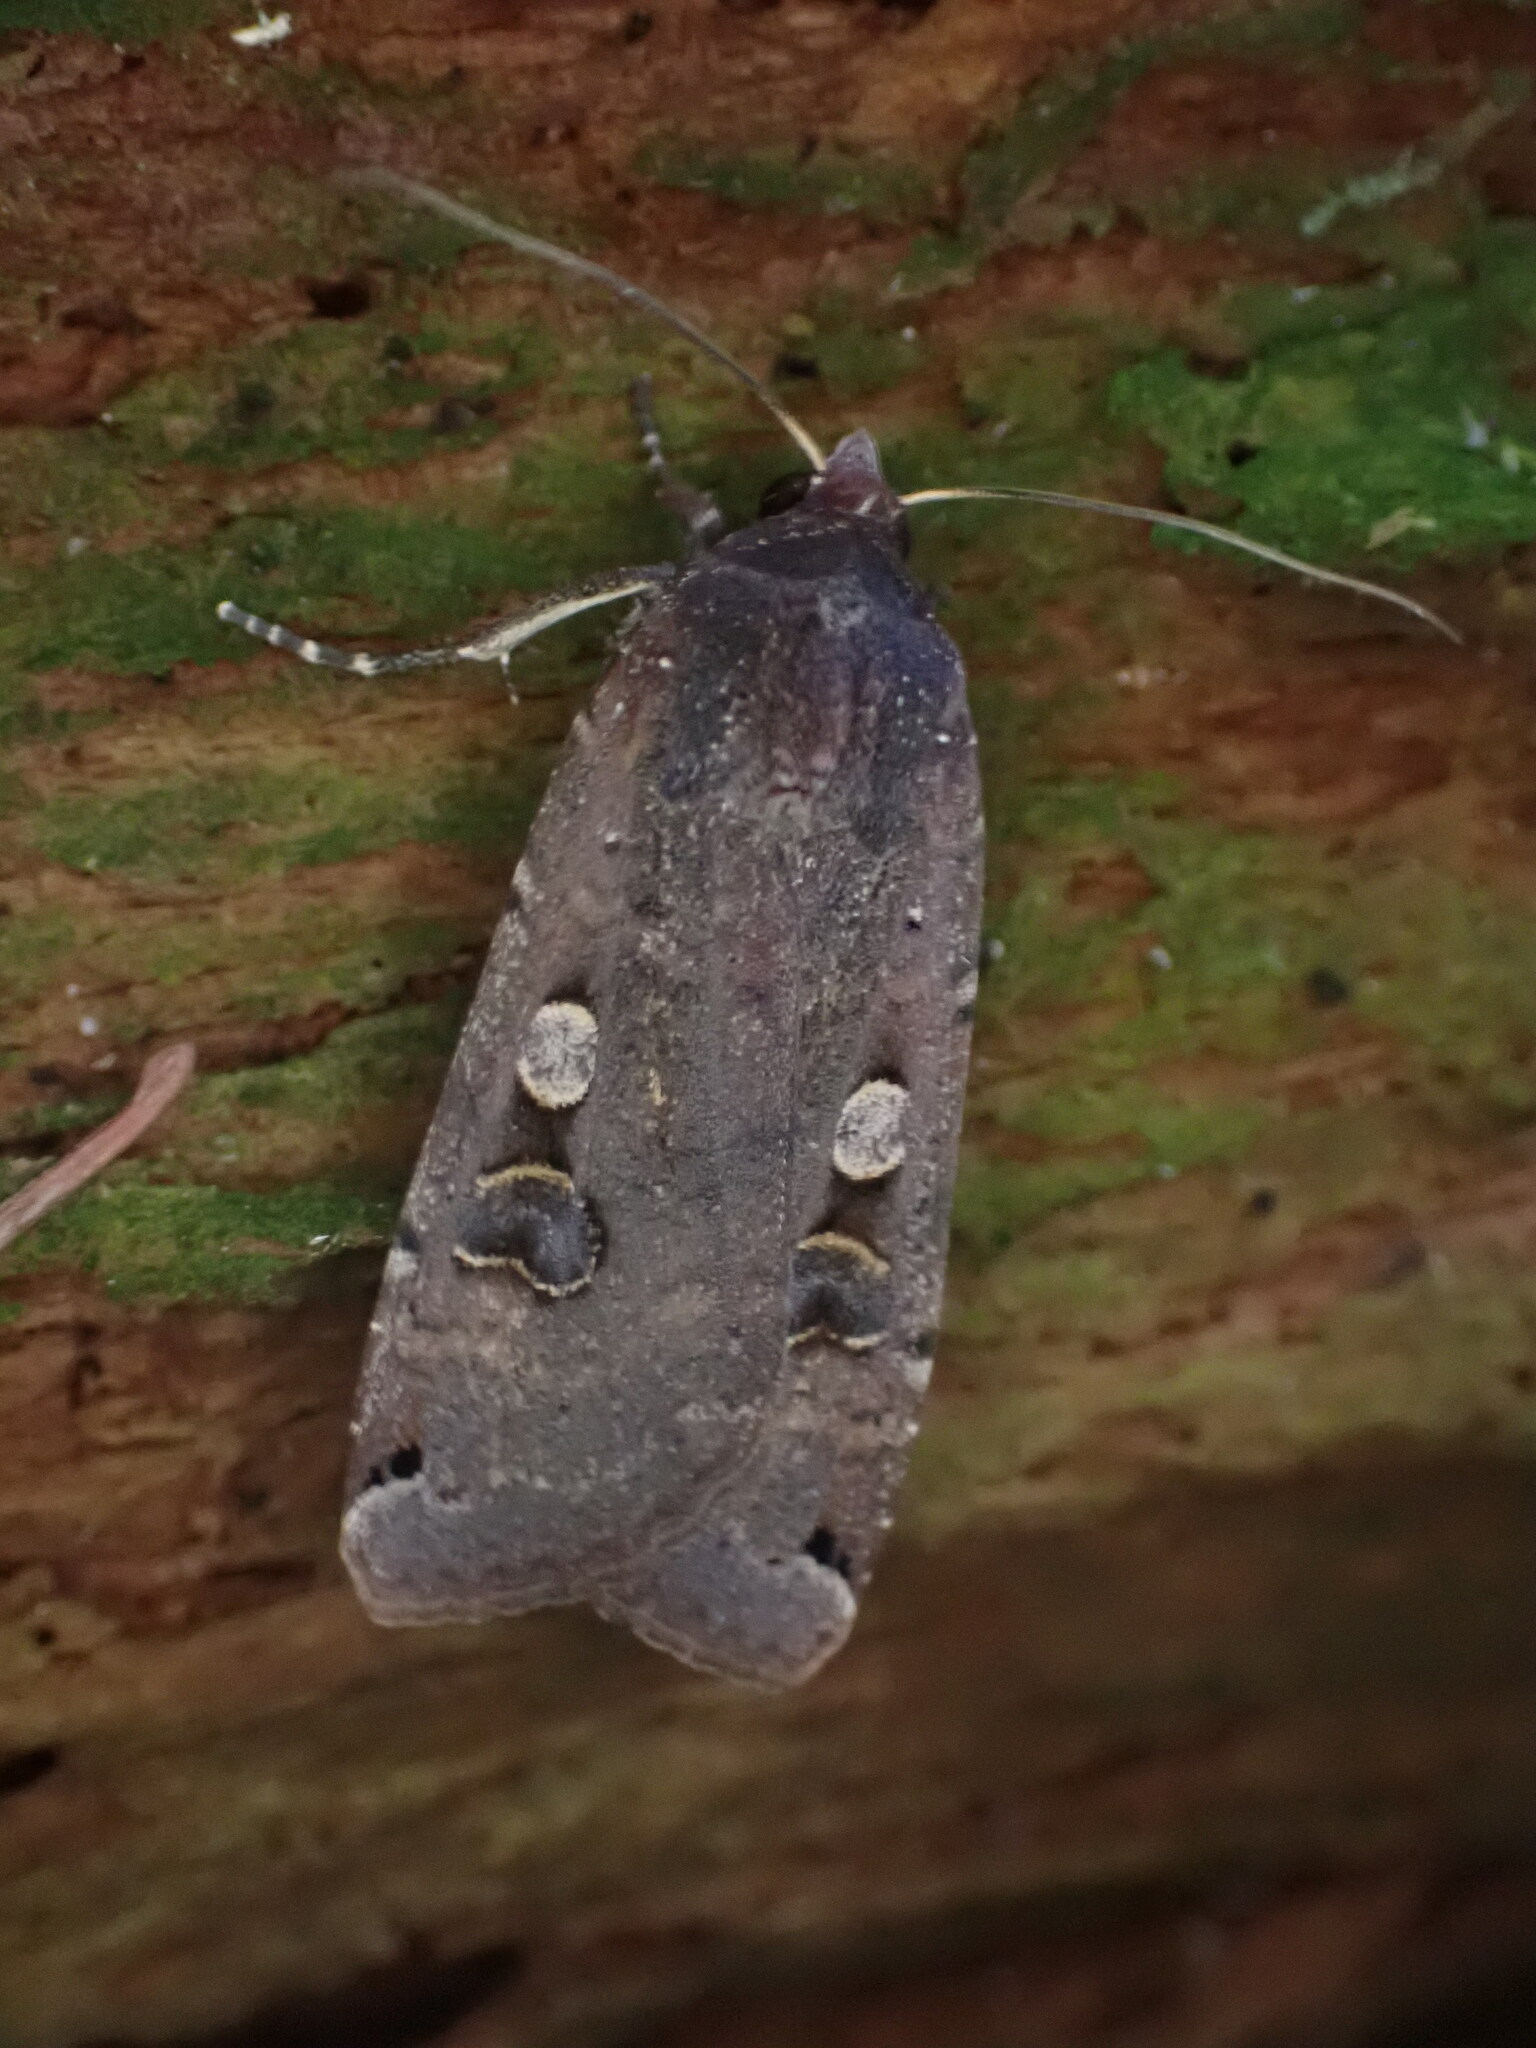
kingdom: Animalia
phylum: Arthropoda
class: Insecta
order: Lepidoptera
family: Noctuidae
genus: Noctua
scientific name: Noctua pronuba
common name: Large yellow underwing
